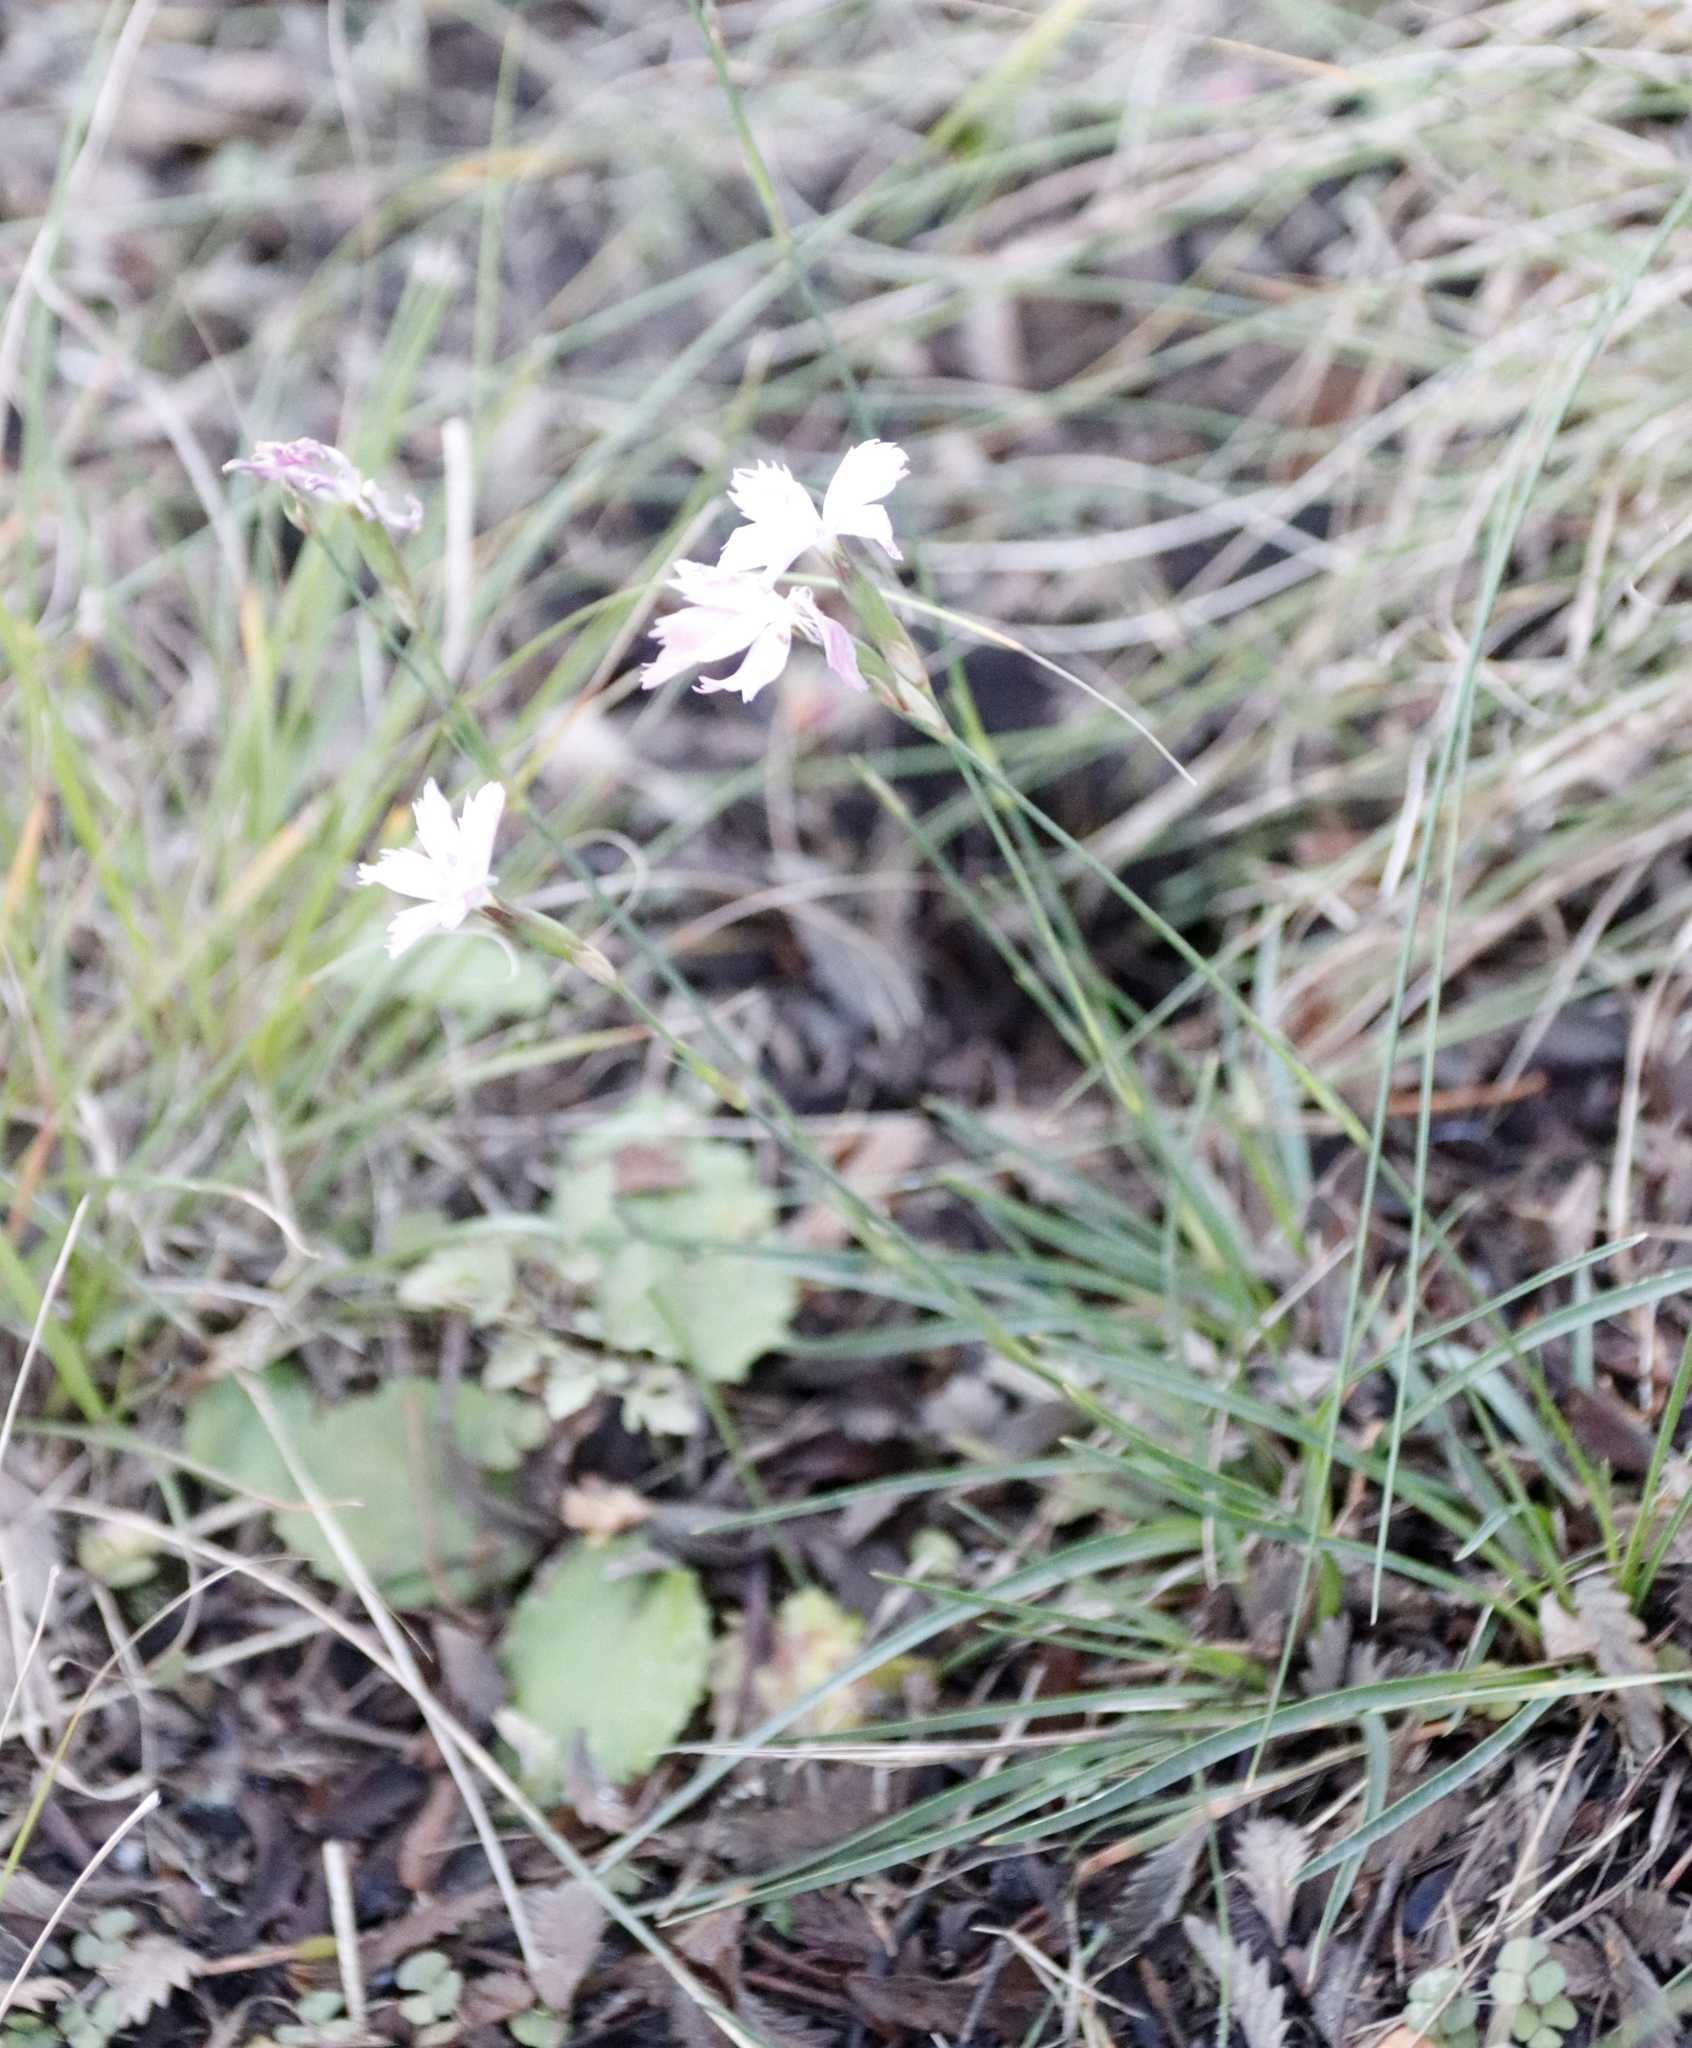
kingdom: Plantae
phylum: Tracheophyta
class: Magnoliopsida
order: Caryophyllales
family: Caryophyllaceae
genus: Dianthus
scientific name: Dianthus basuticus
